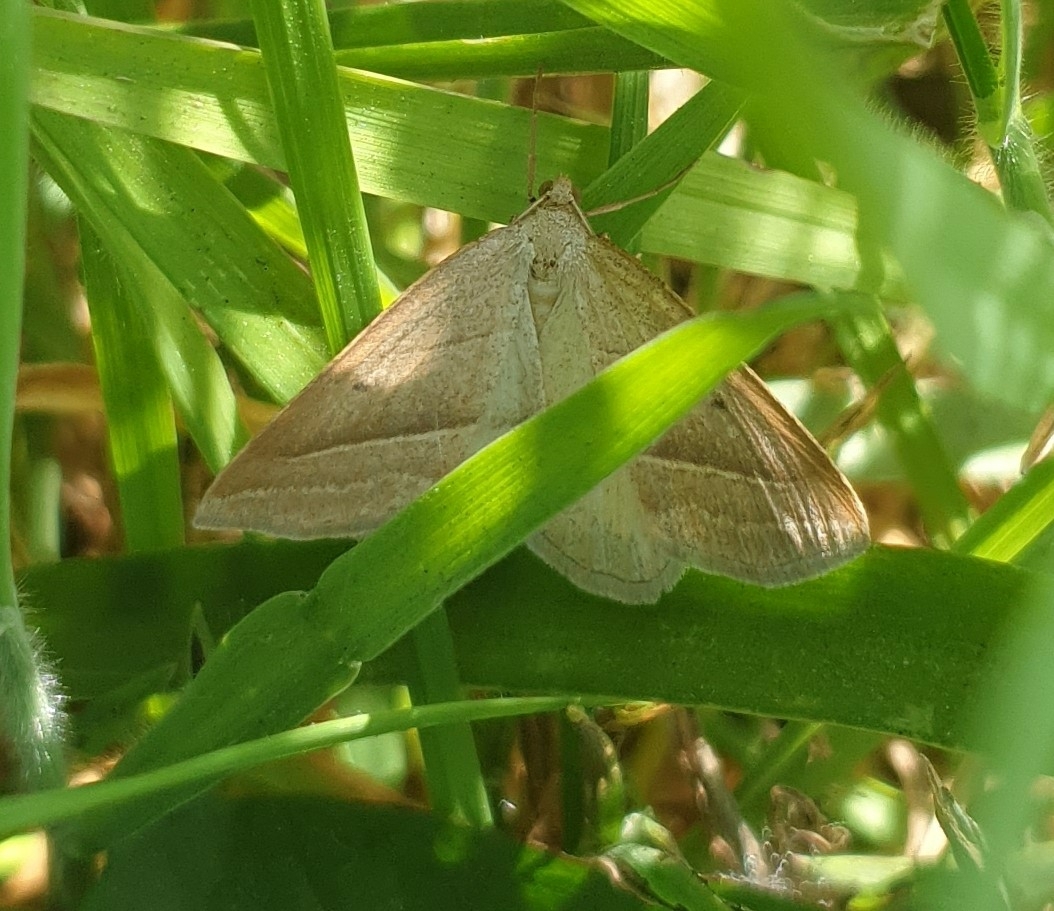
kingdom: Animalia
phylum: Arthropoda
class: Insecta
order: Lepidoptera
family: Pterophoridae
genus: Pterophorus
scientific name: Pterophorus Petrophora chlorosata
